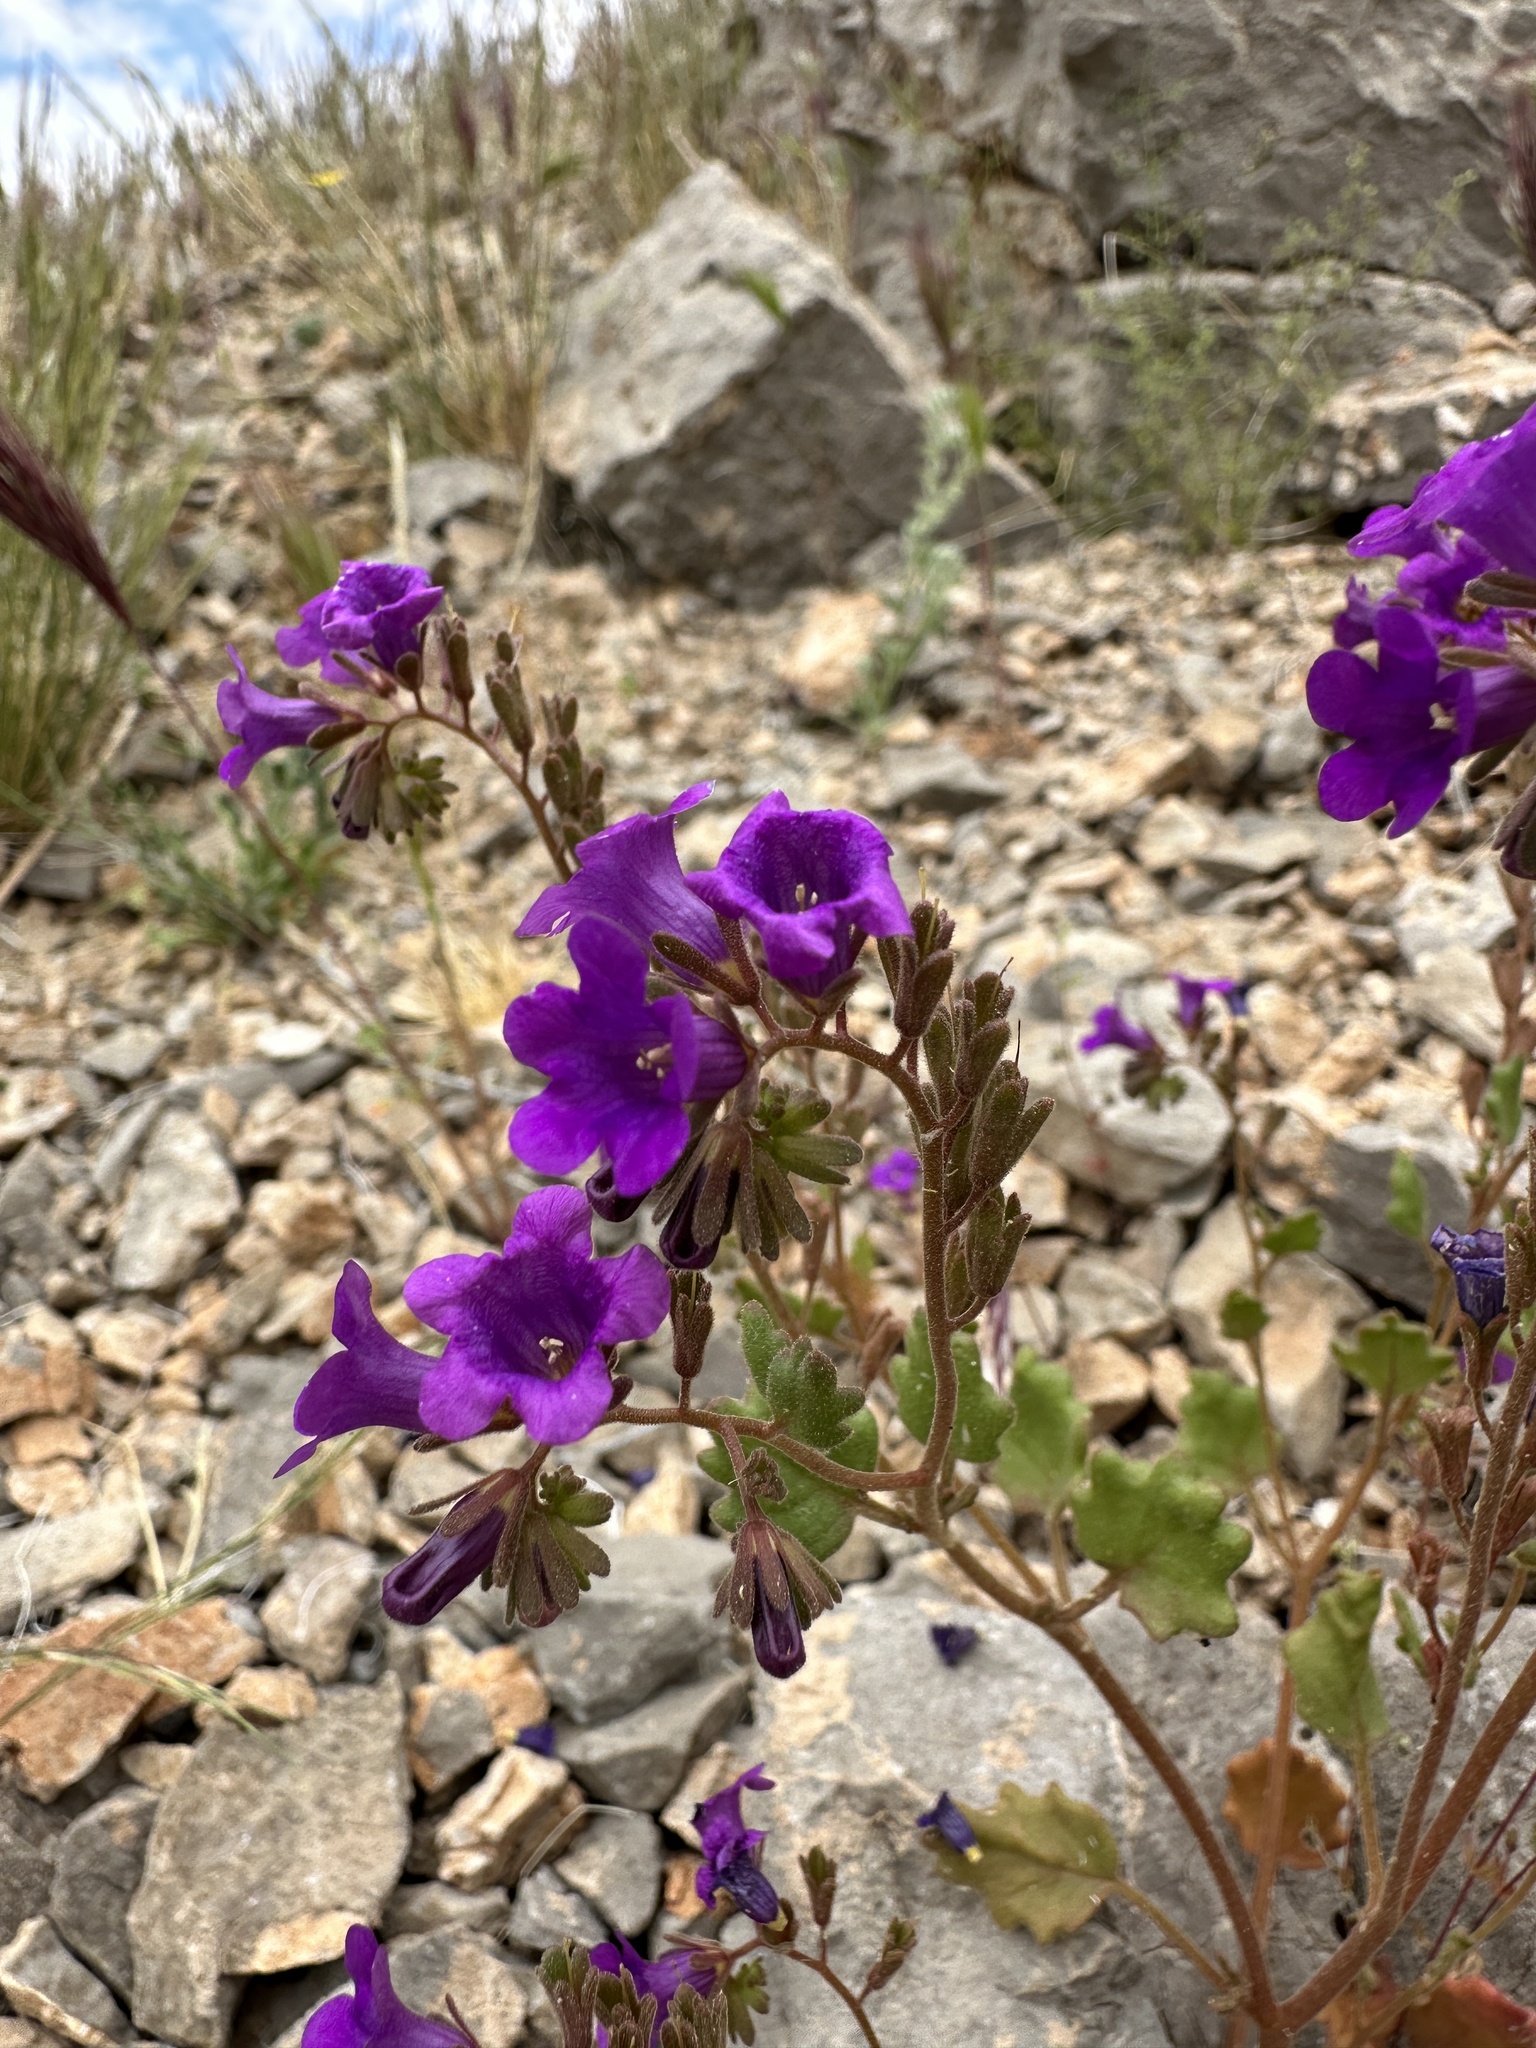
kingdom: Plantae
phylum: Tracheophyta
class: Magnoliopsida
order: Boraginales
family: Hydrophyllaceae
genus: Phacelia
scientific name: Phacelia pulchella
